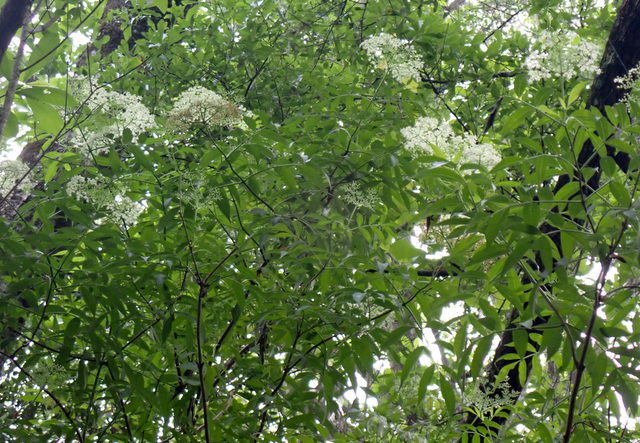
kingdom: Plantae
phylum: Tracheophyta
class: Magnoliopsida
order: Dipsacales
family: Viburnaceae
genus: Sambucus
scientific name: Sambucus canadensis
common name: American elder
